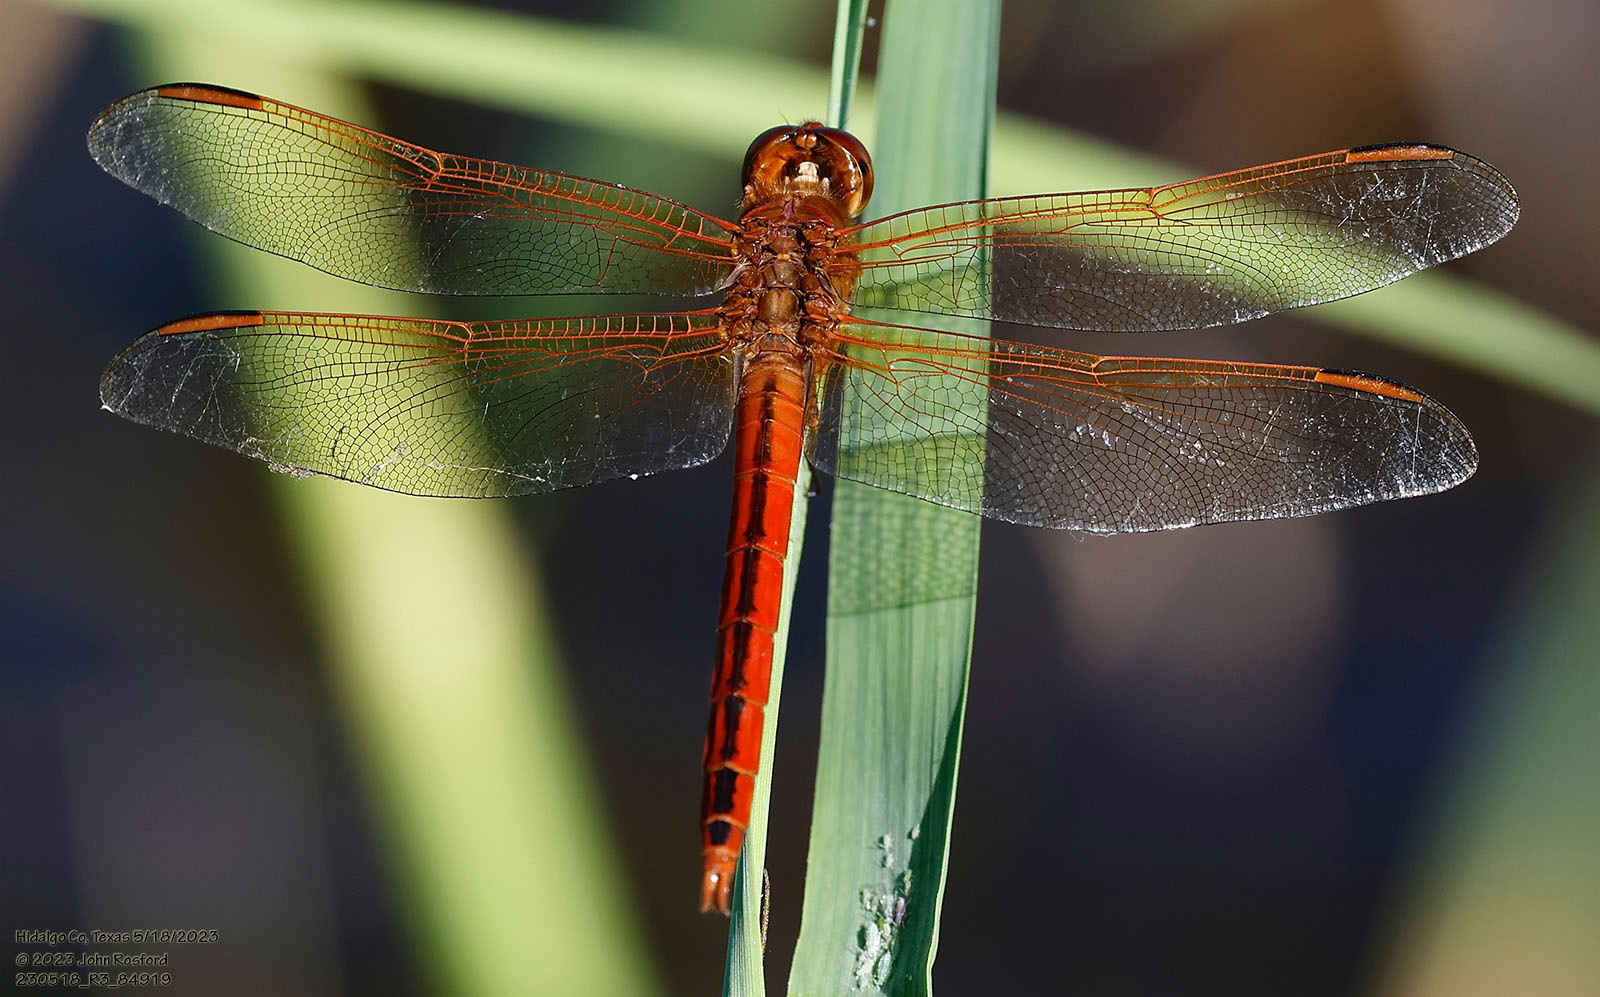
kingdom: Animalia
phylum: Arthropoda
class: Insecta
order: Odonata
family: Libellulidae
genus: Libellula
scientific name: Libellula needhami
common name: Needham's skimmer
